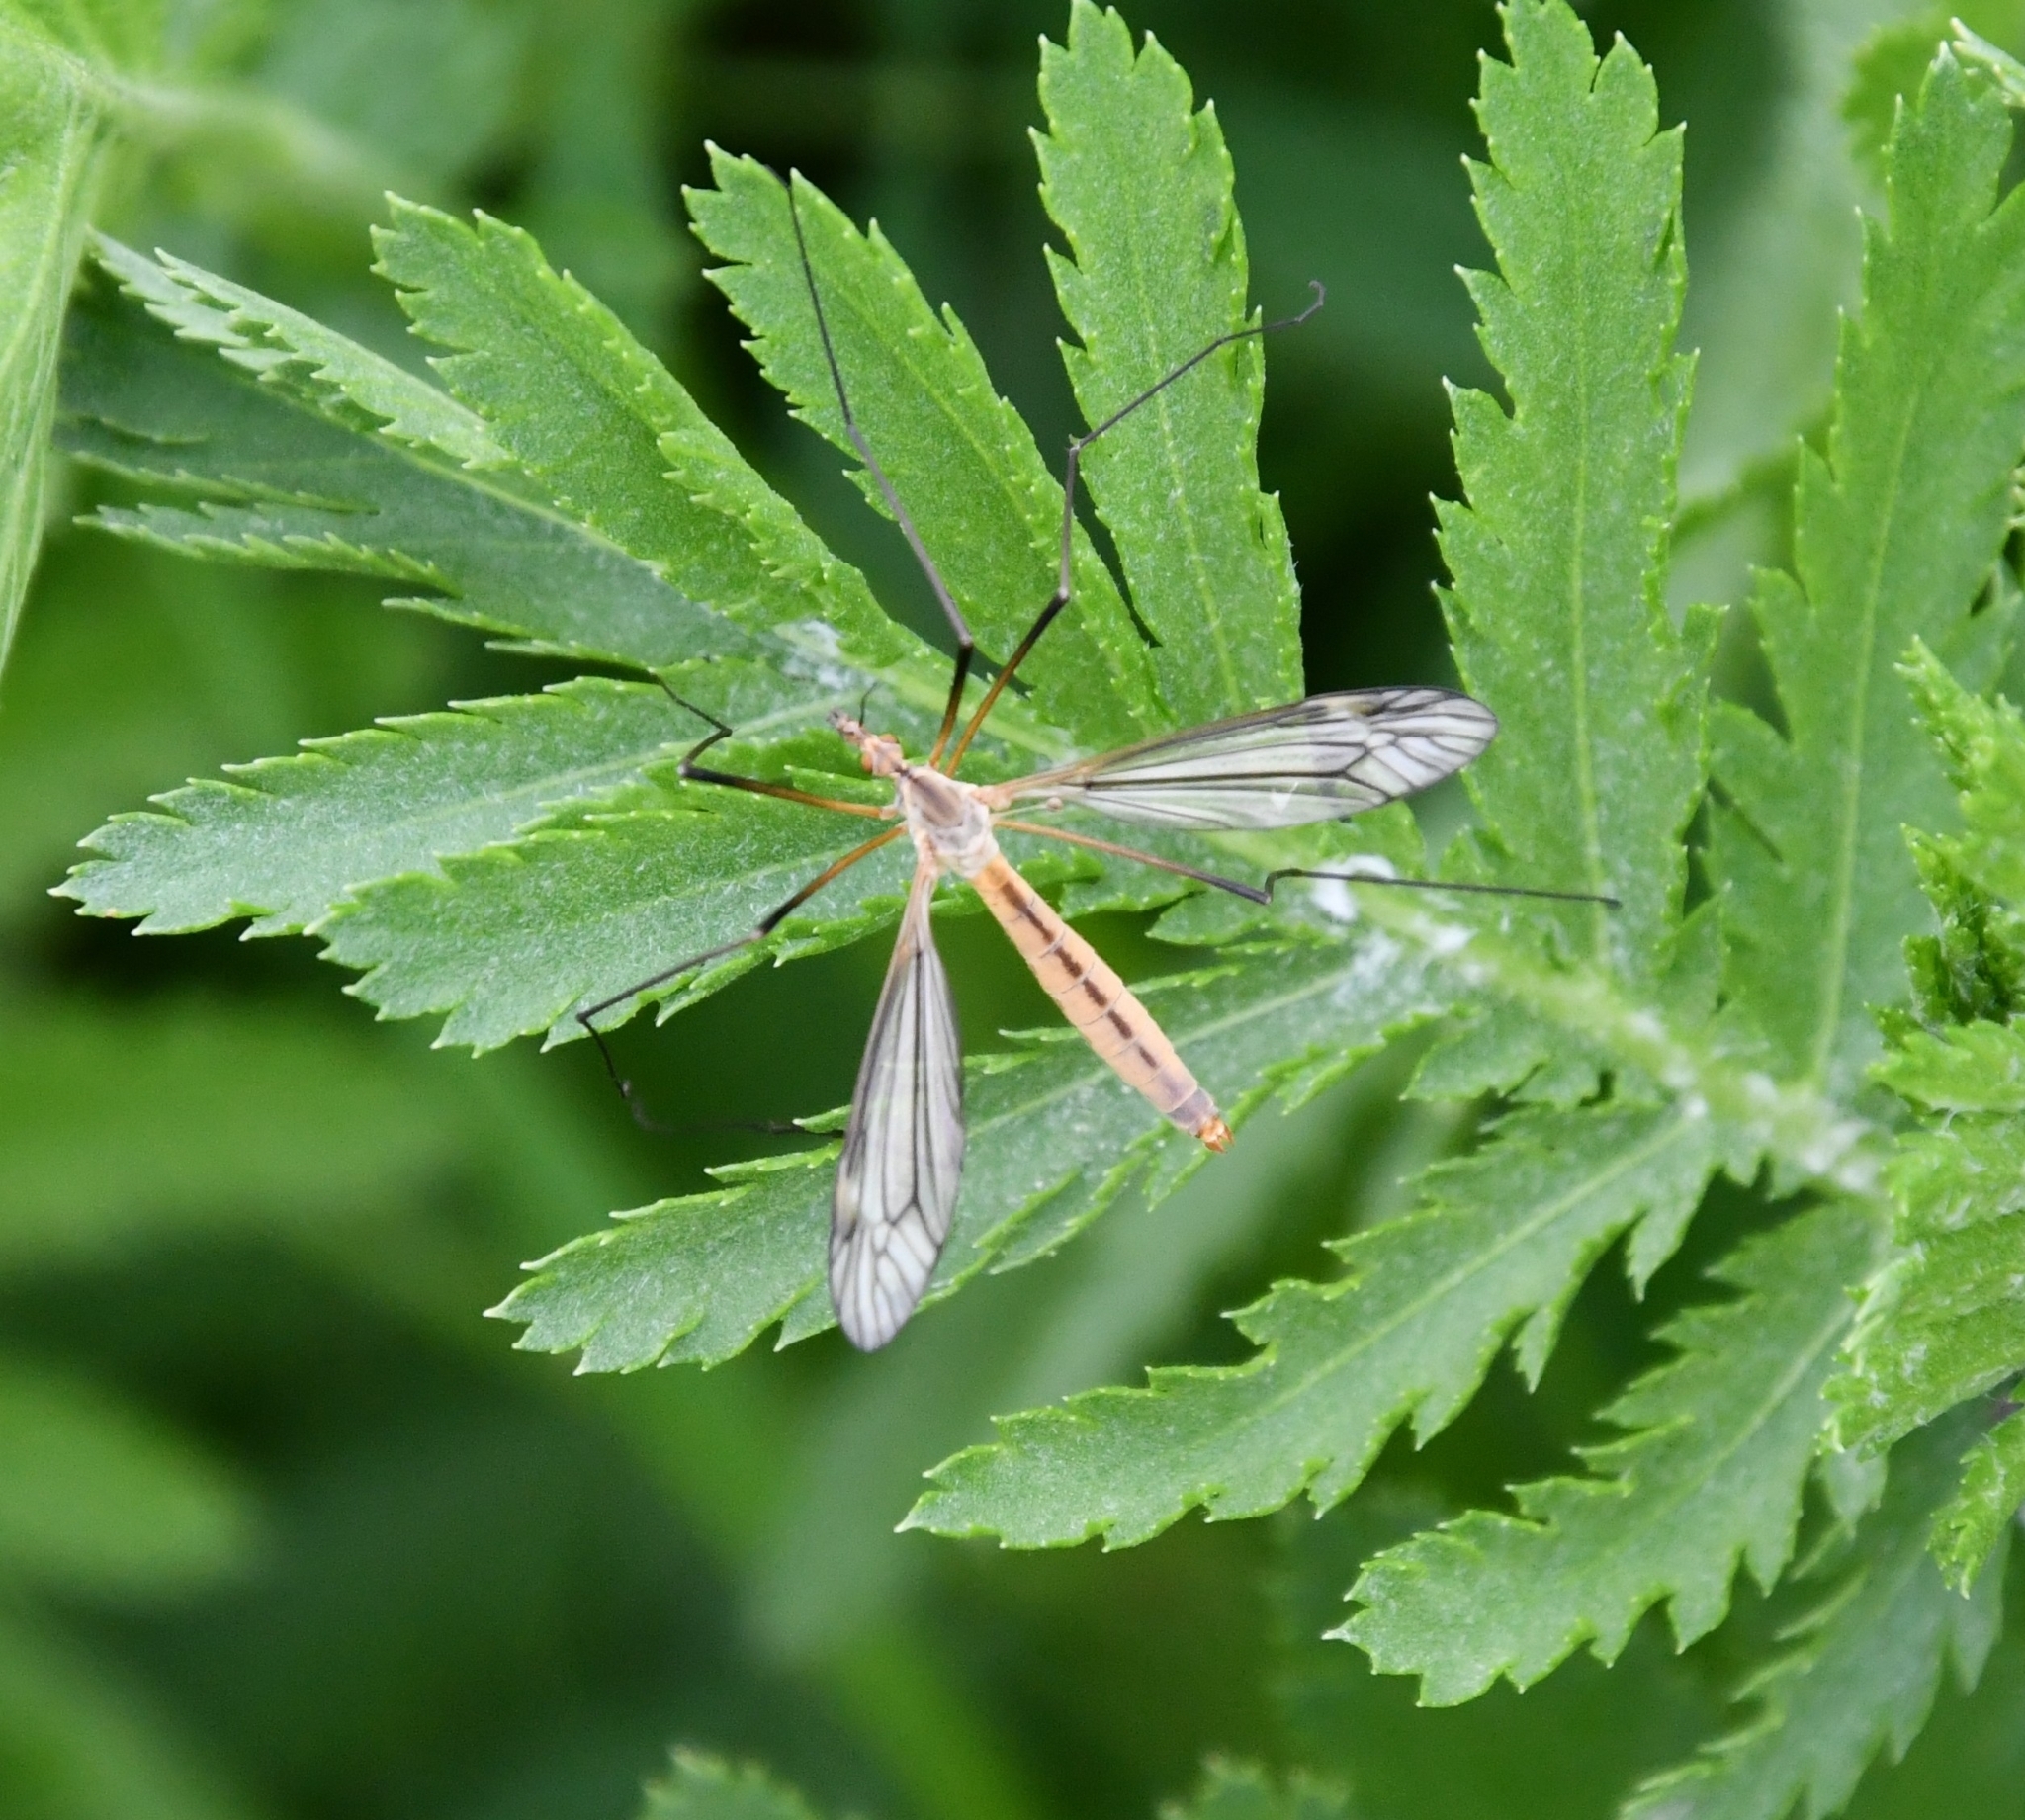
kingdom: Animalia
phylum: Arthropoda
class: Insecta
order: Diptera
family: Tipulidae
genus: Tipula
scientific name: Tipula vernalis
